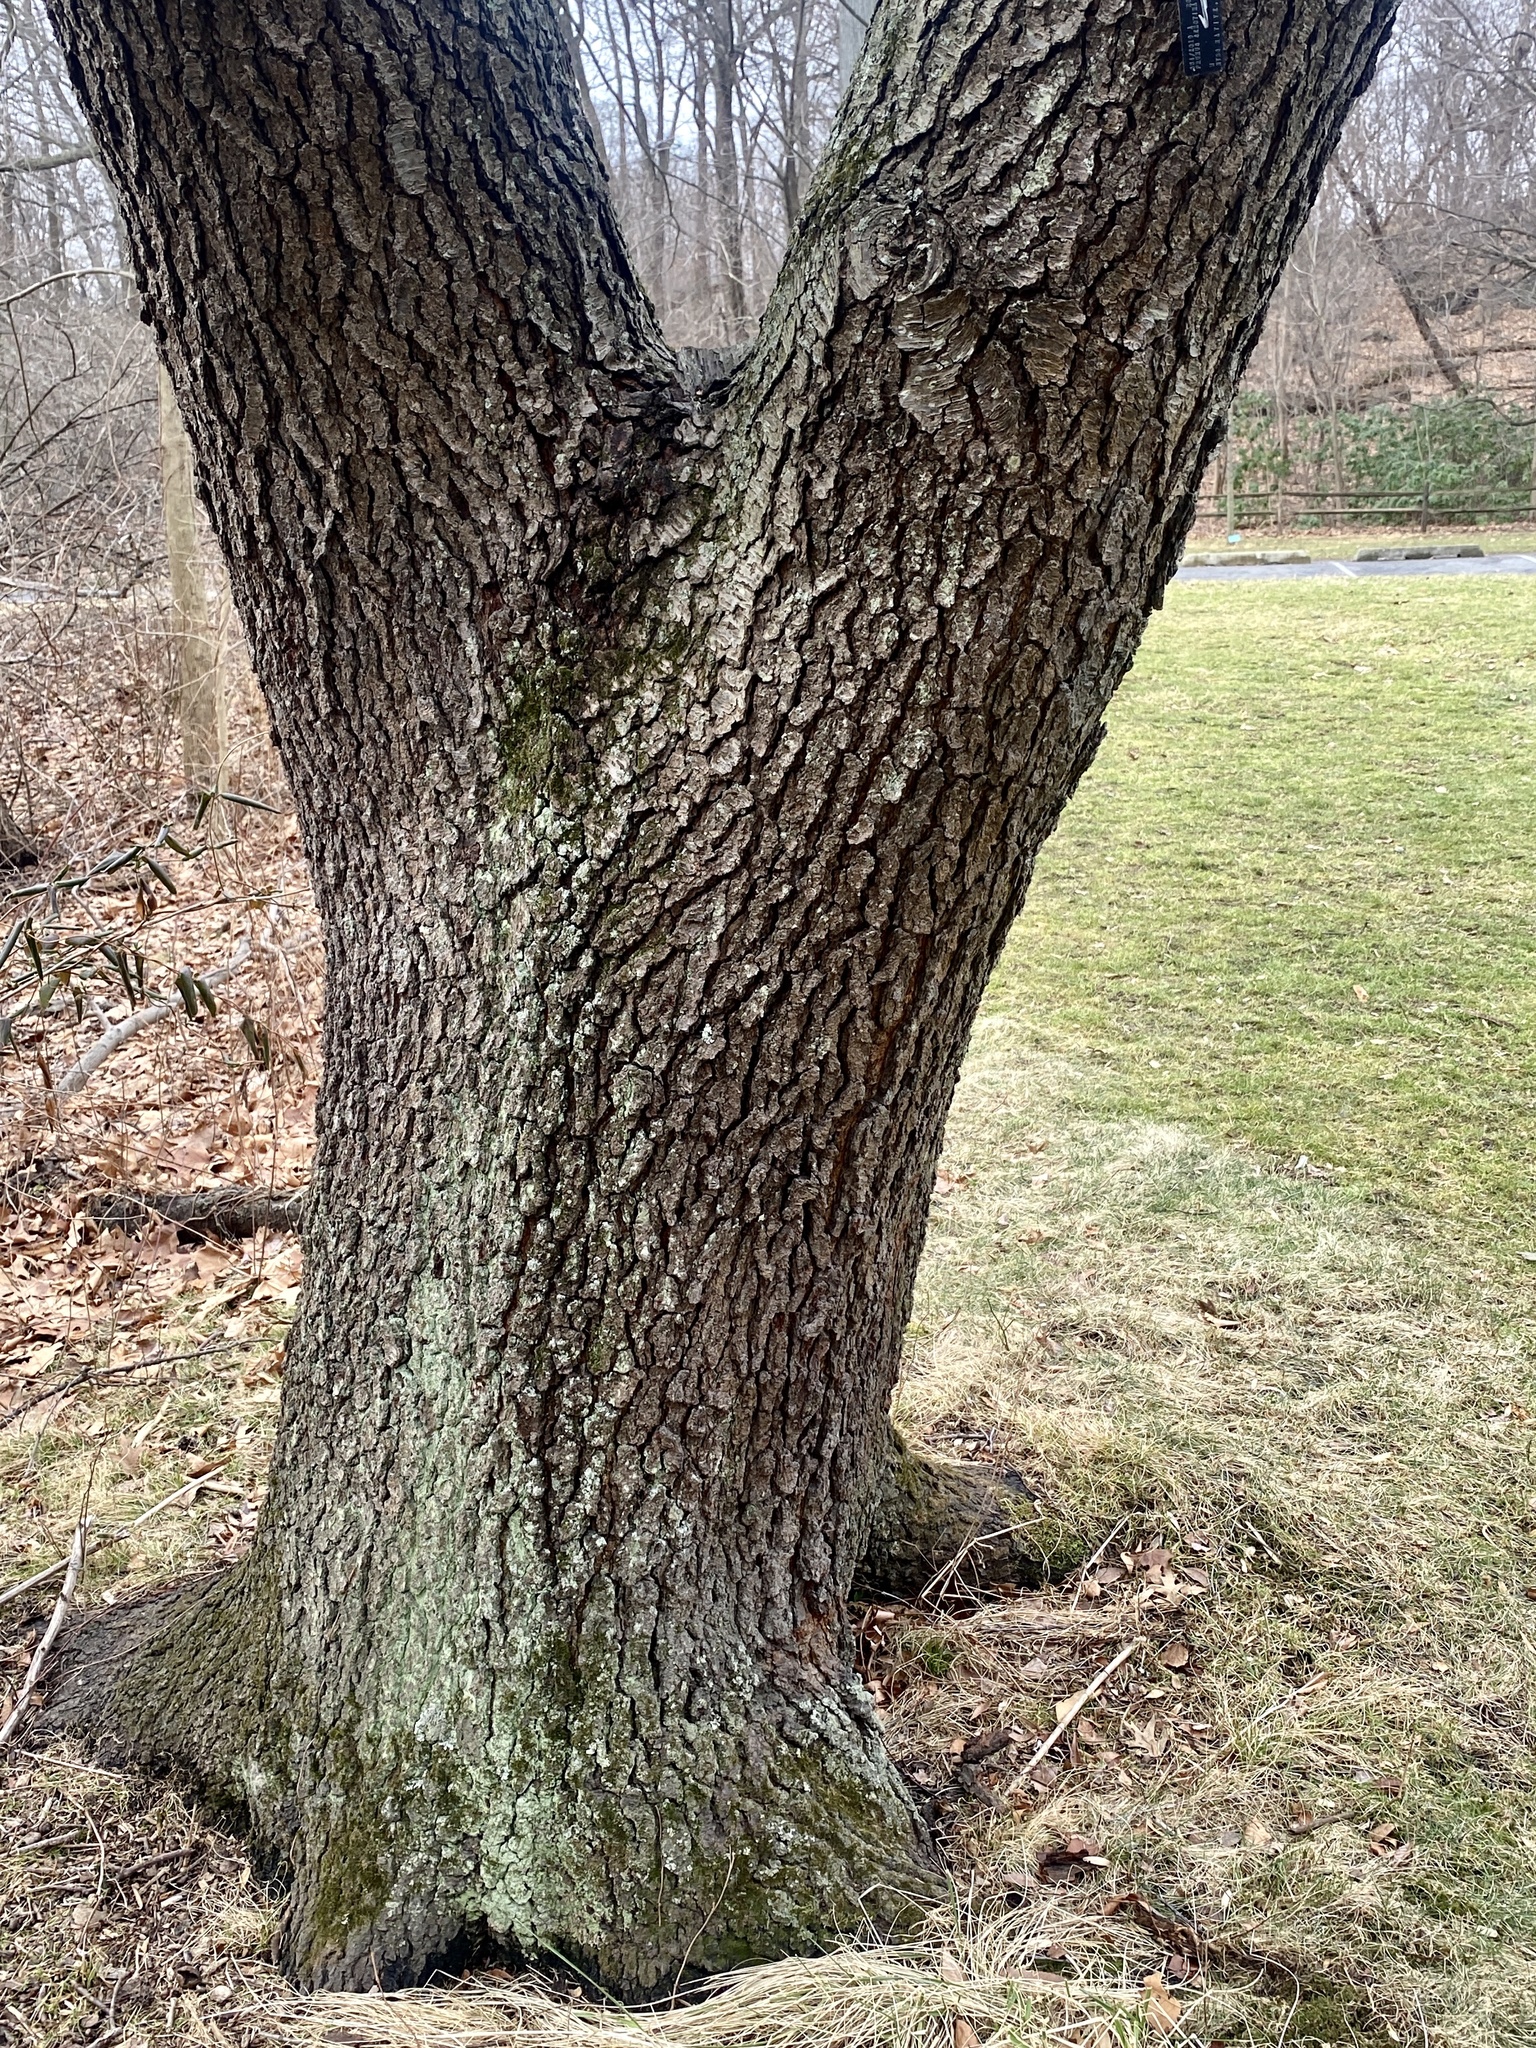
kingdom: Plantae
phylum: Tracheophyta
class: Magnoliopsida
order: Rosales
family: Rosaceae
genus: Prunus
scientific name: Prunus serotina
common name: Black cherry
